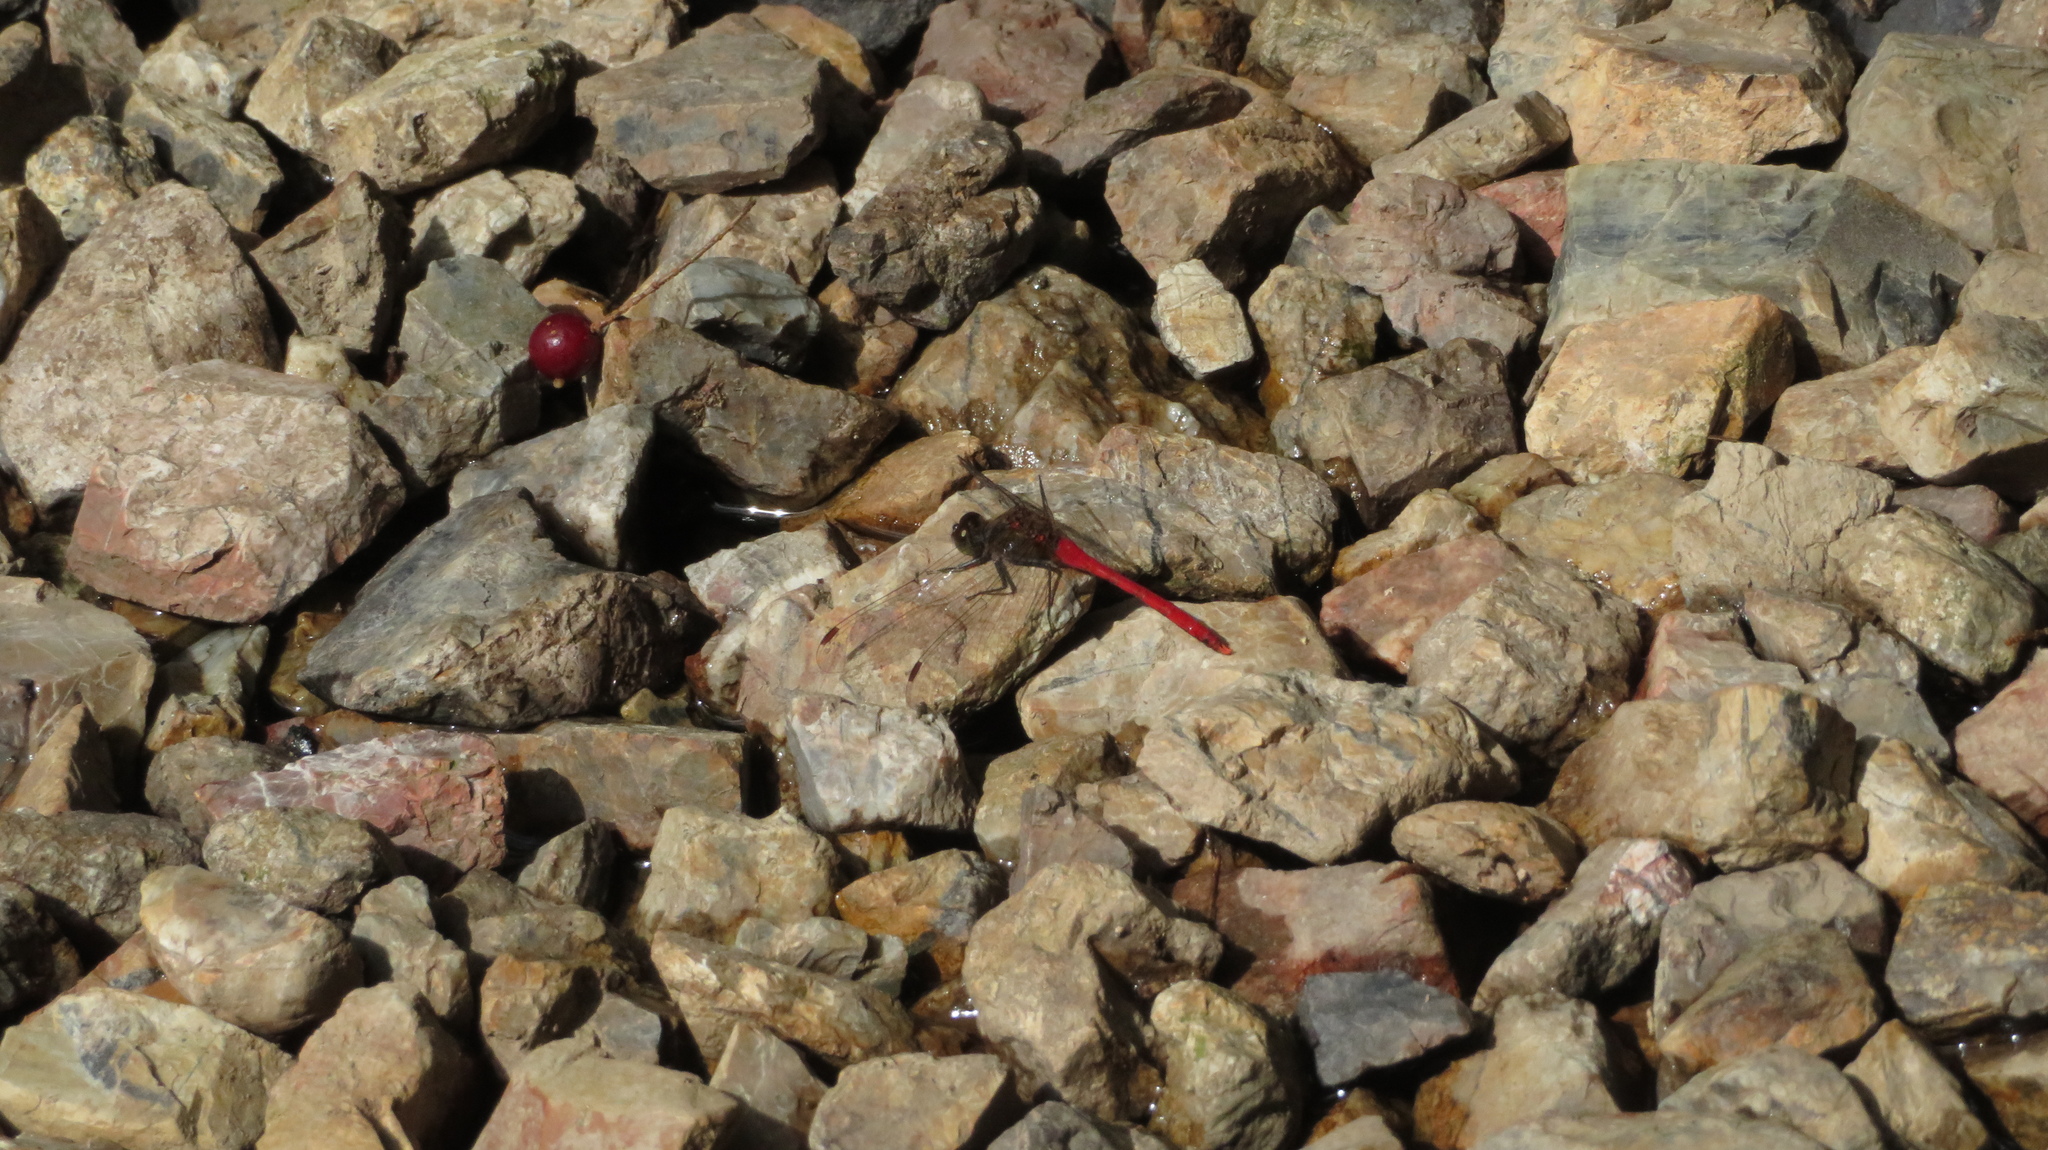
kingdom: Animalia
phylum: Arthropoda
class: Insecta
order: Odonata
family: Libellulidae
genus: Sympetrum
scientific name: Sympetrum kunckeli
